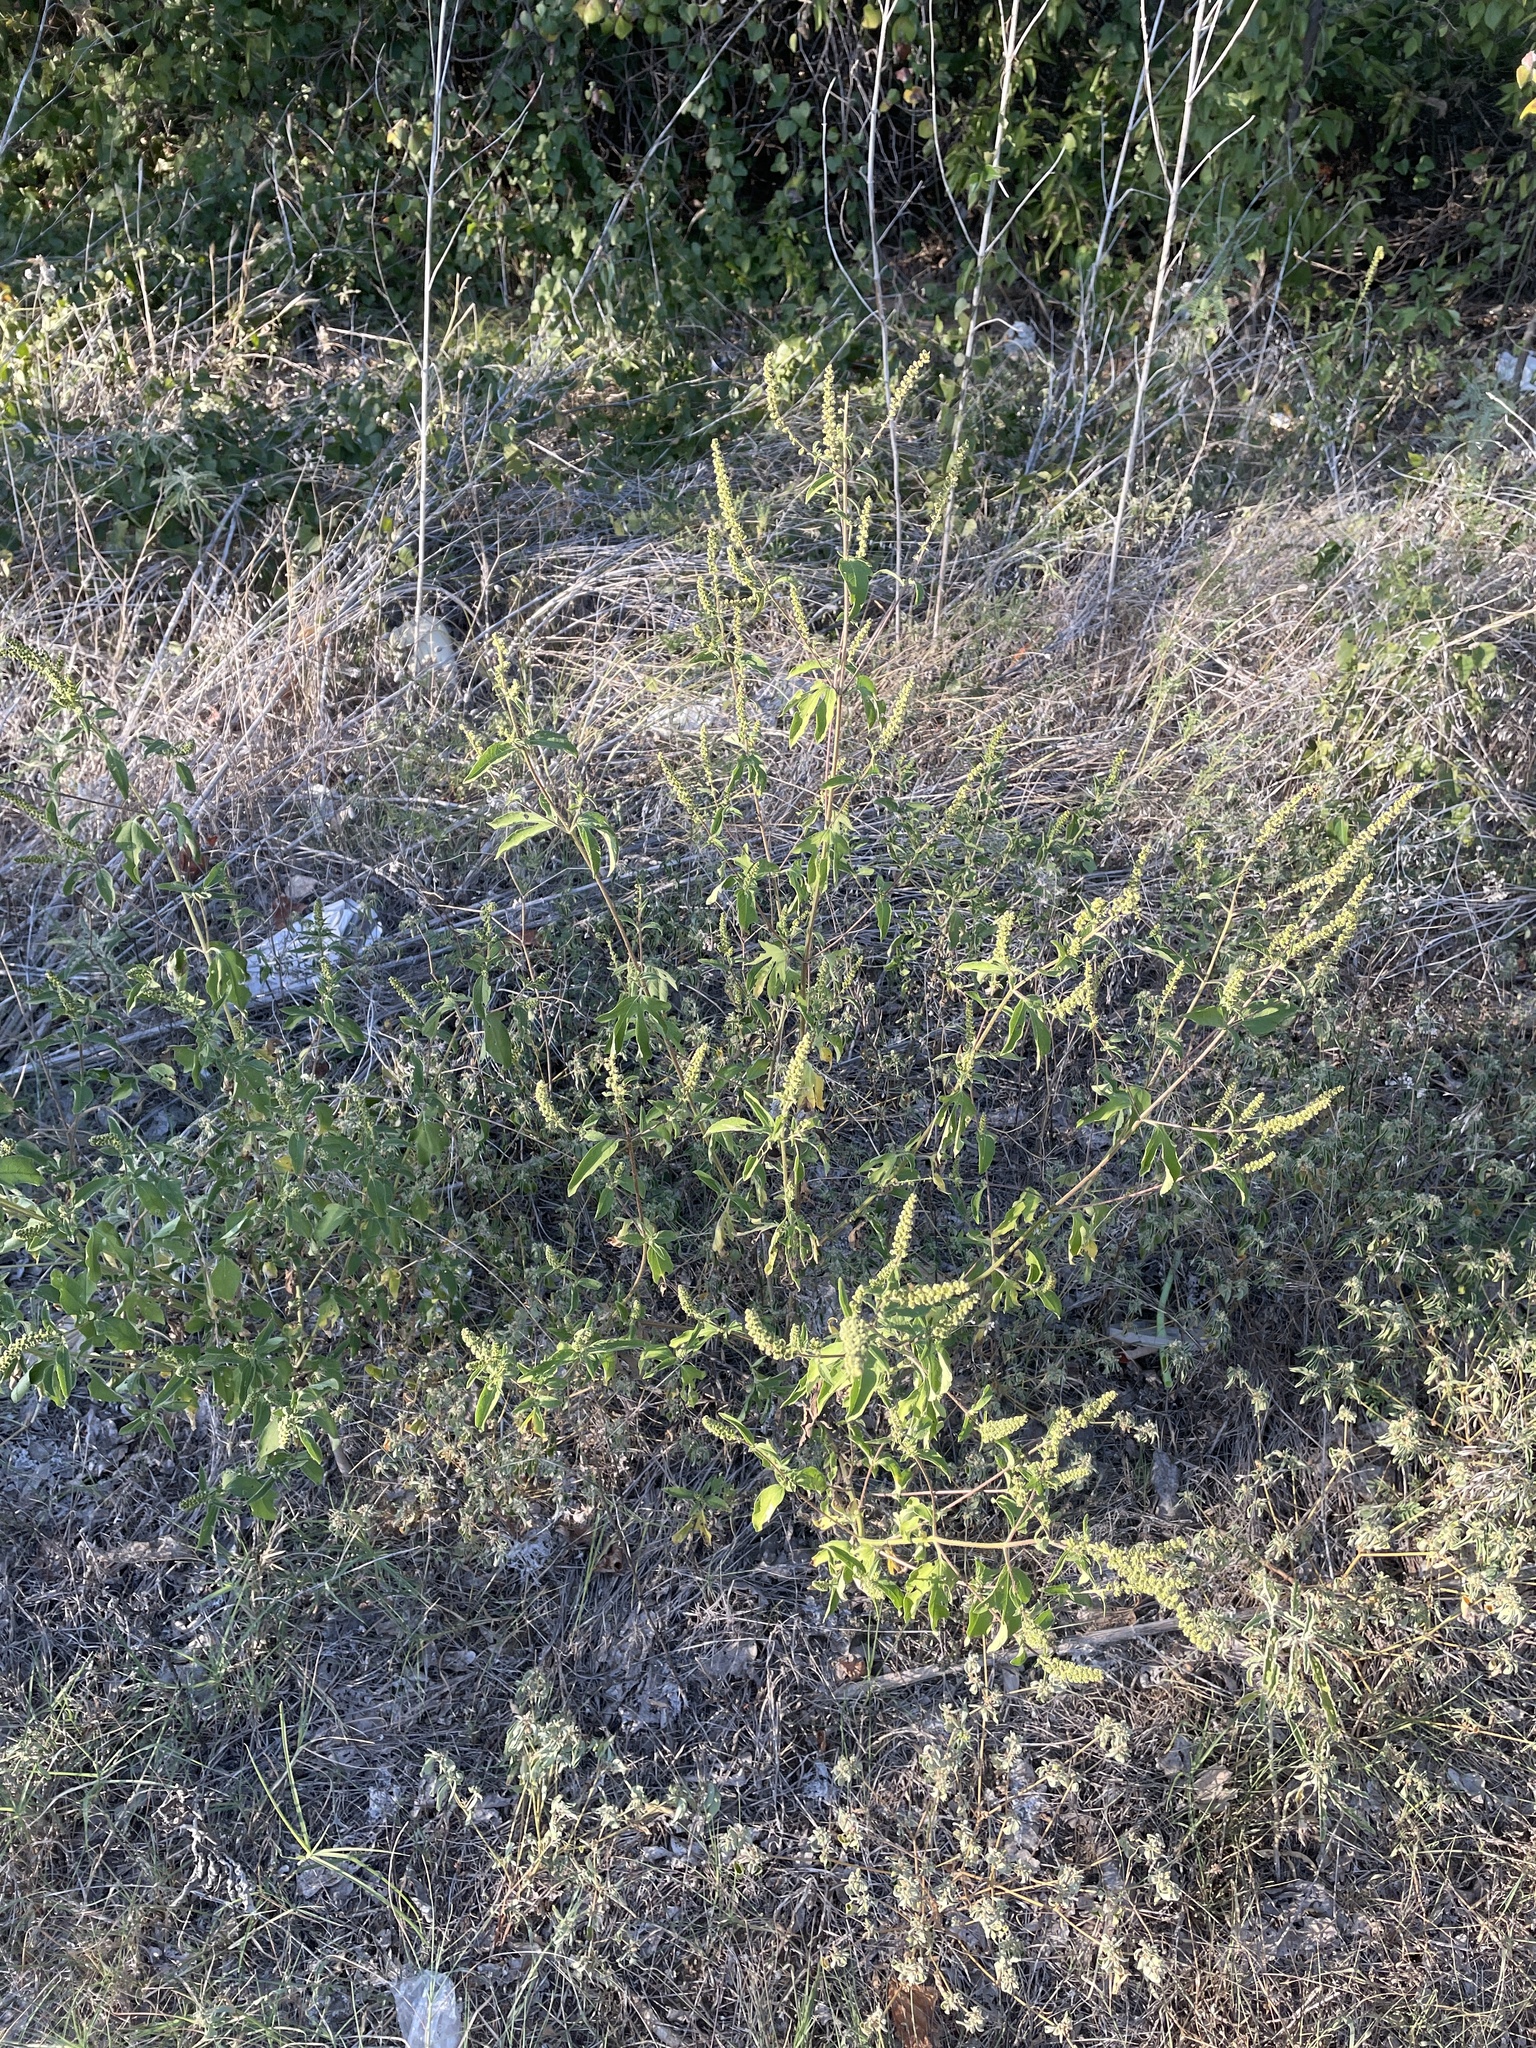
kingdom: Plantae
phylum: Tracheophyta
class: Magnoliopsida
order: Asterales
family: Asteraceae
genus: Ambrosia
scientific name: Ambrosia trifida
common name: Giant ragweed
